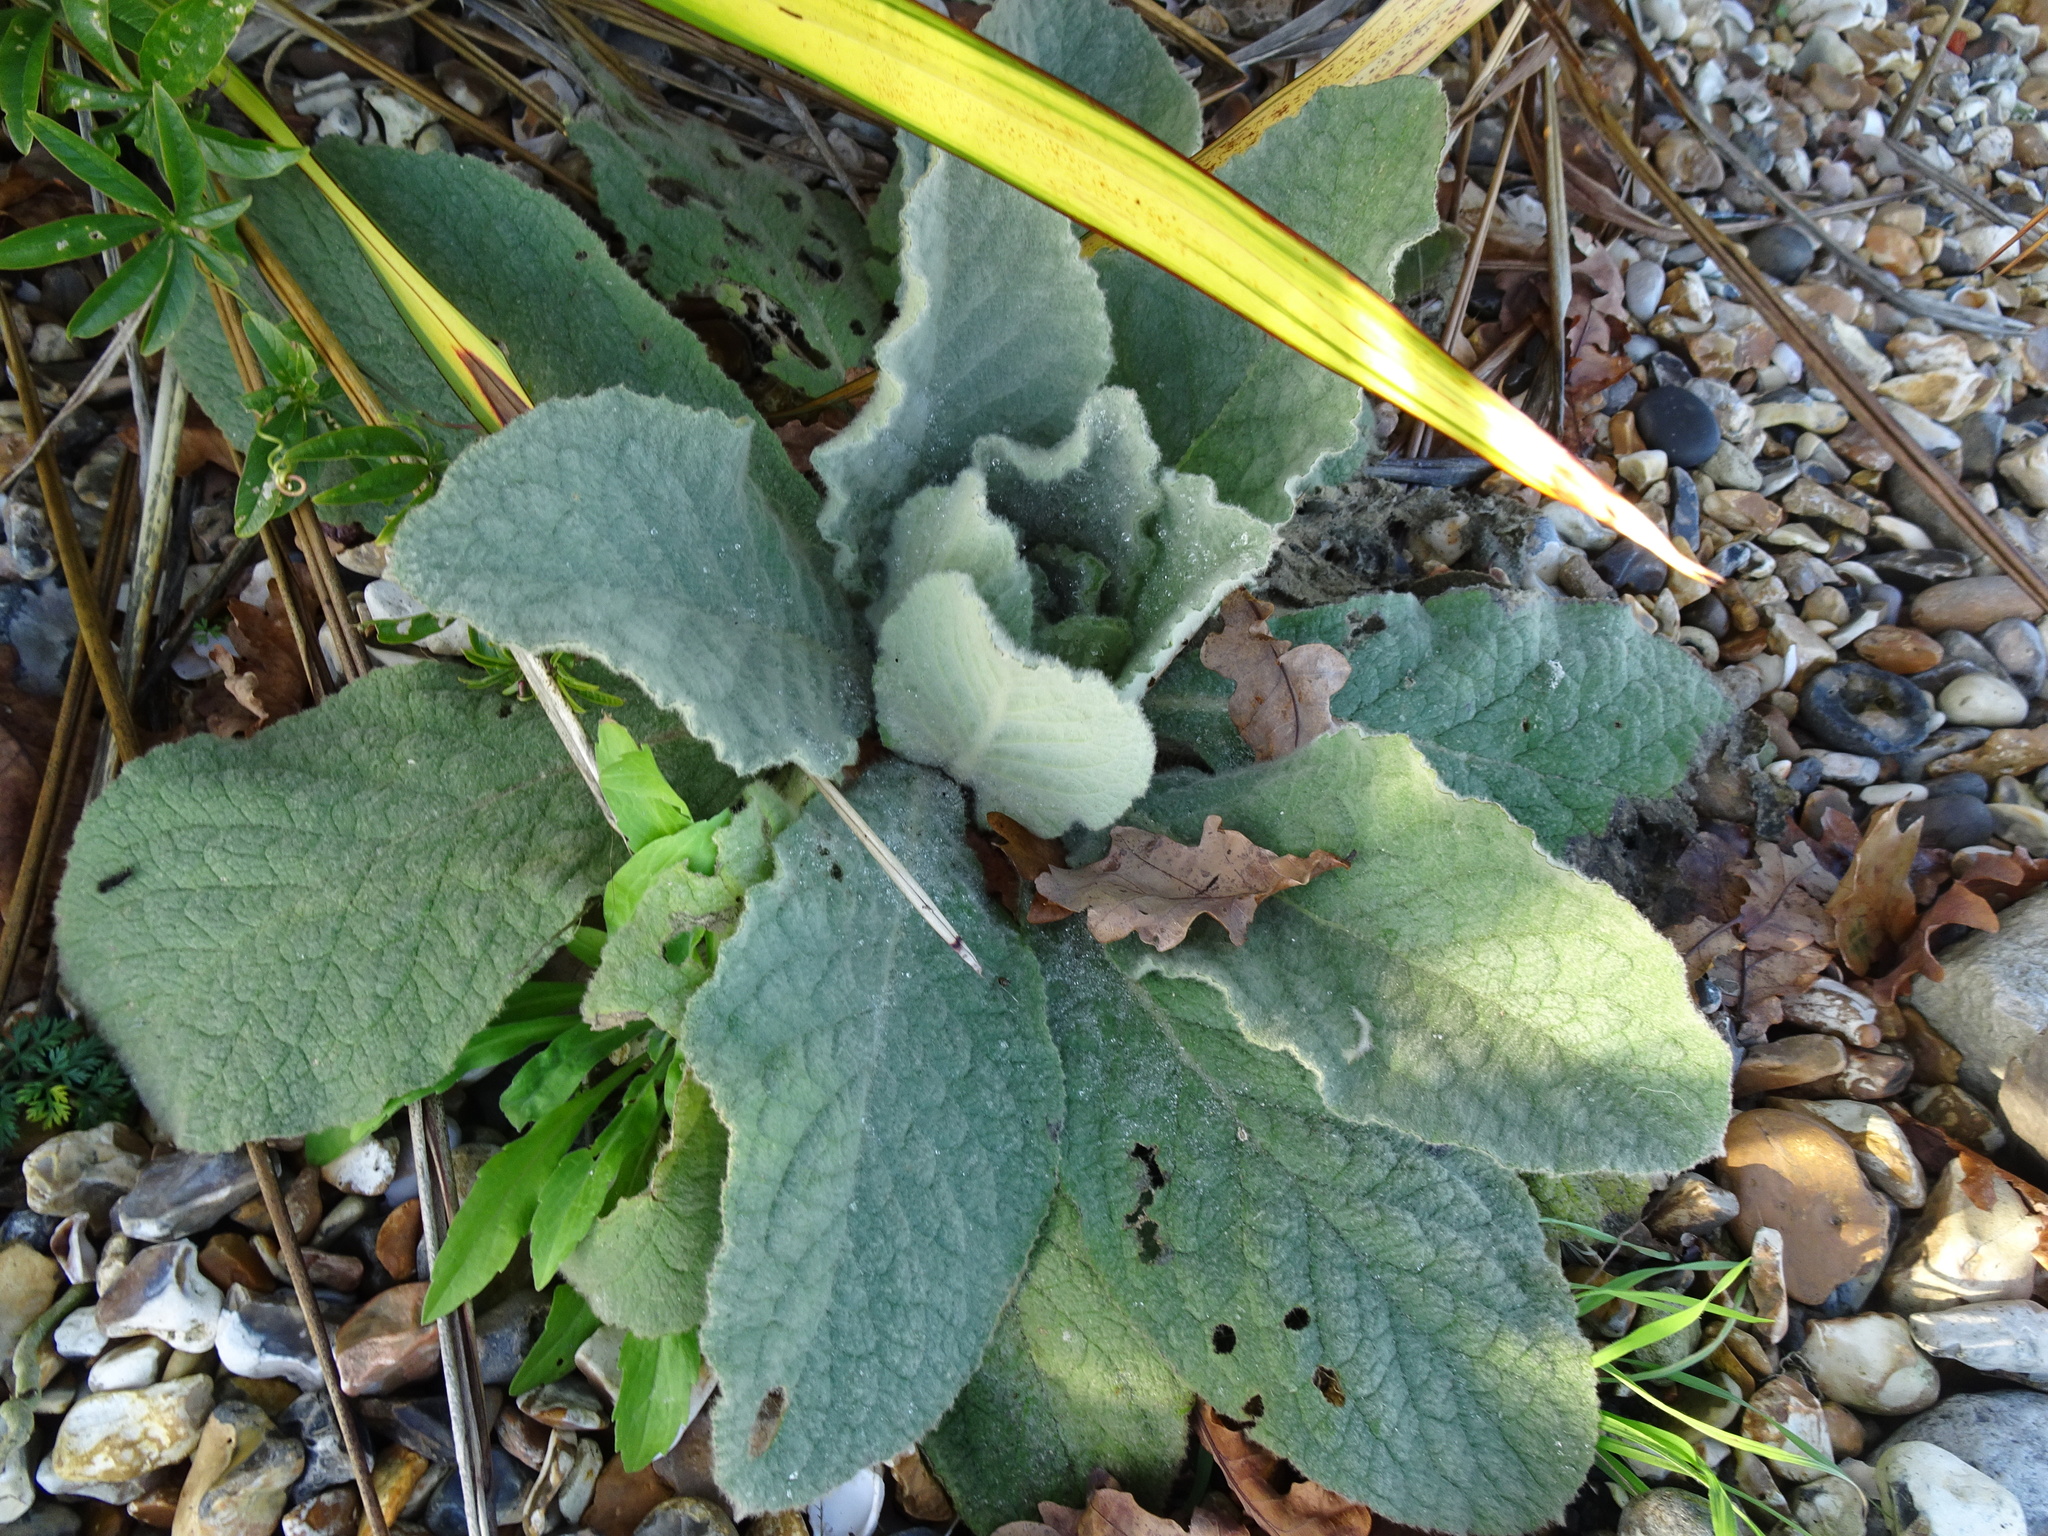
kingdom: Plantae
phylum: Tracheophyta
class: Magnoliopsida
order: Lamiales
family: Scrophulariaceae
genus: Verbascum
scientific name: Verbascum thapsus
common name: Common mullein
